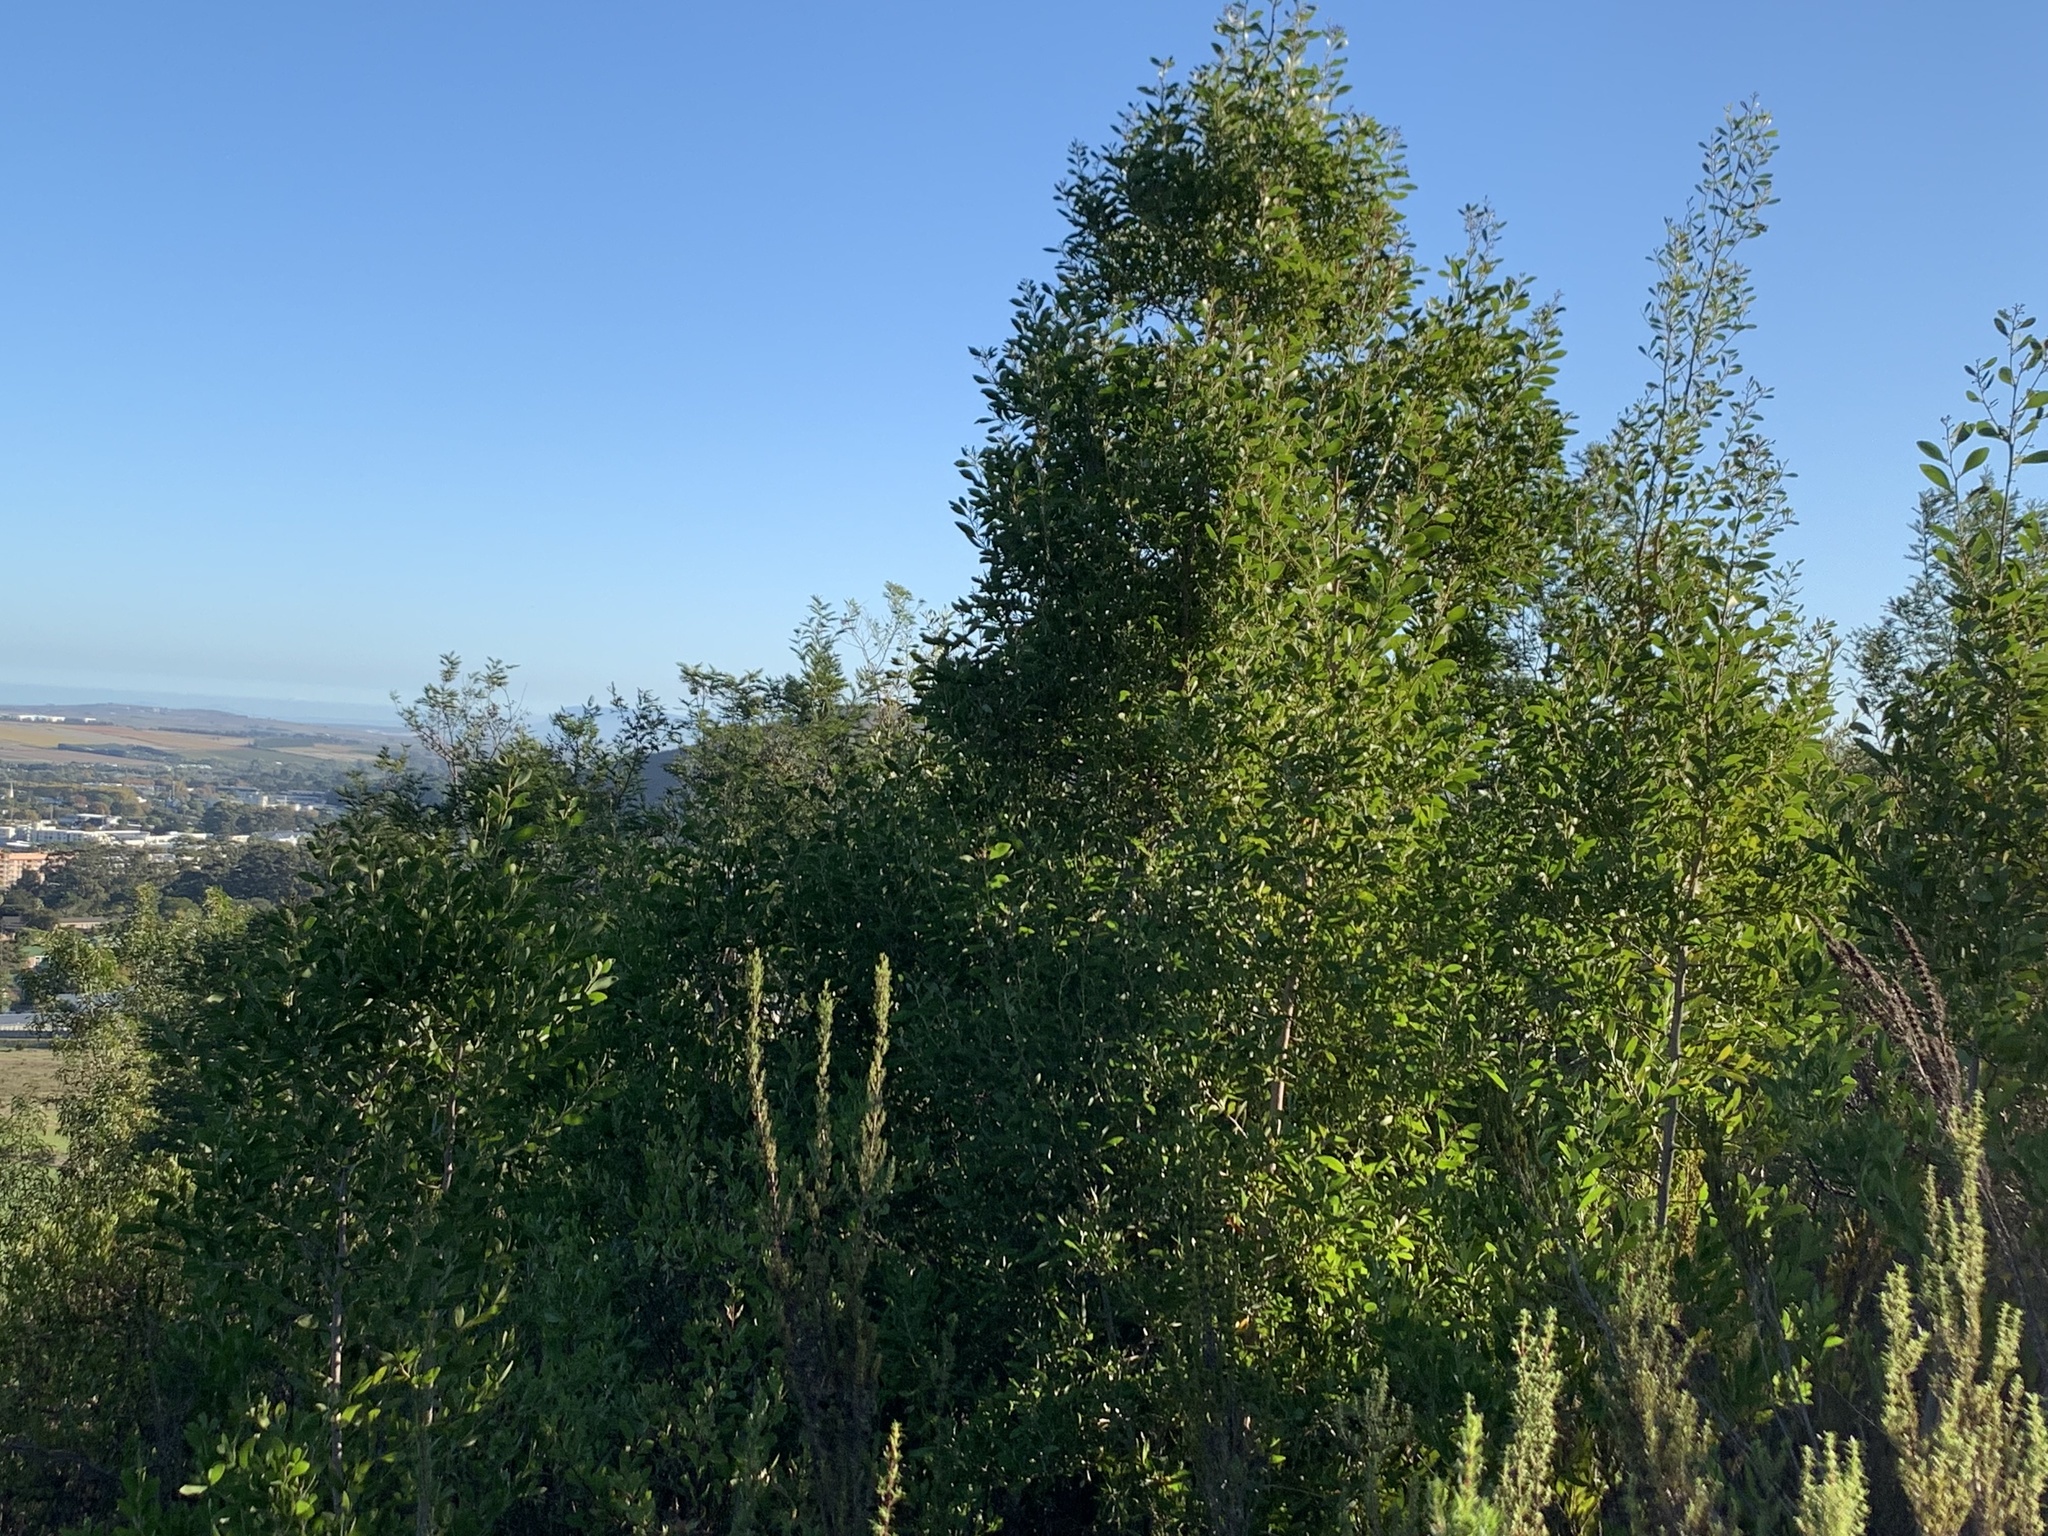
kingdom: Plantae
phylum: Tracheophyta
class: Magnoliopsida
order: Fabales
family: Fabaceae
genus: Acacia
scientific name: Acacia melanoxylon
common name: Blackwood
